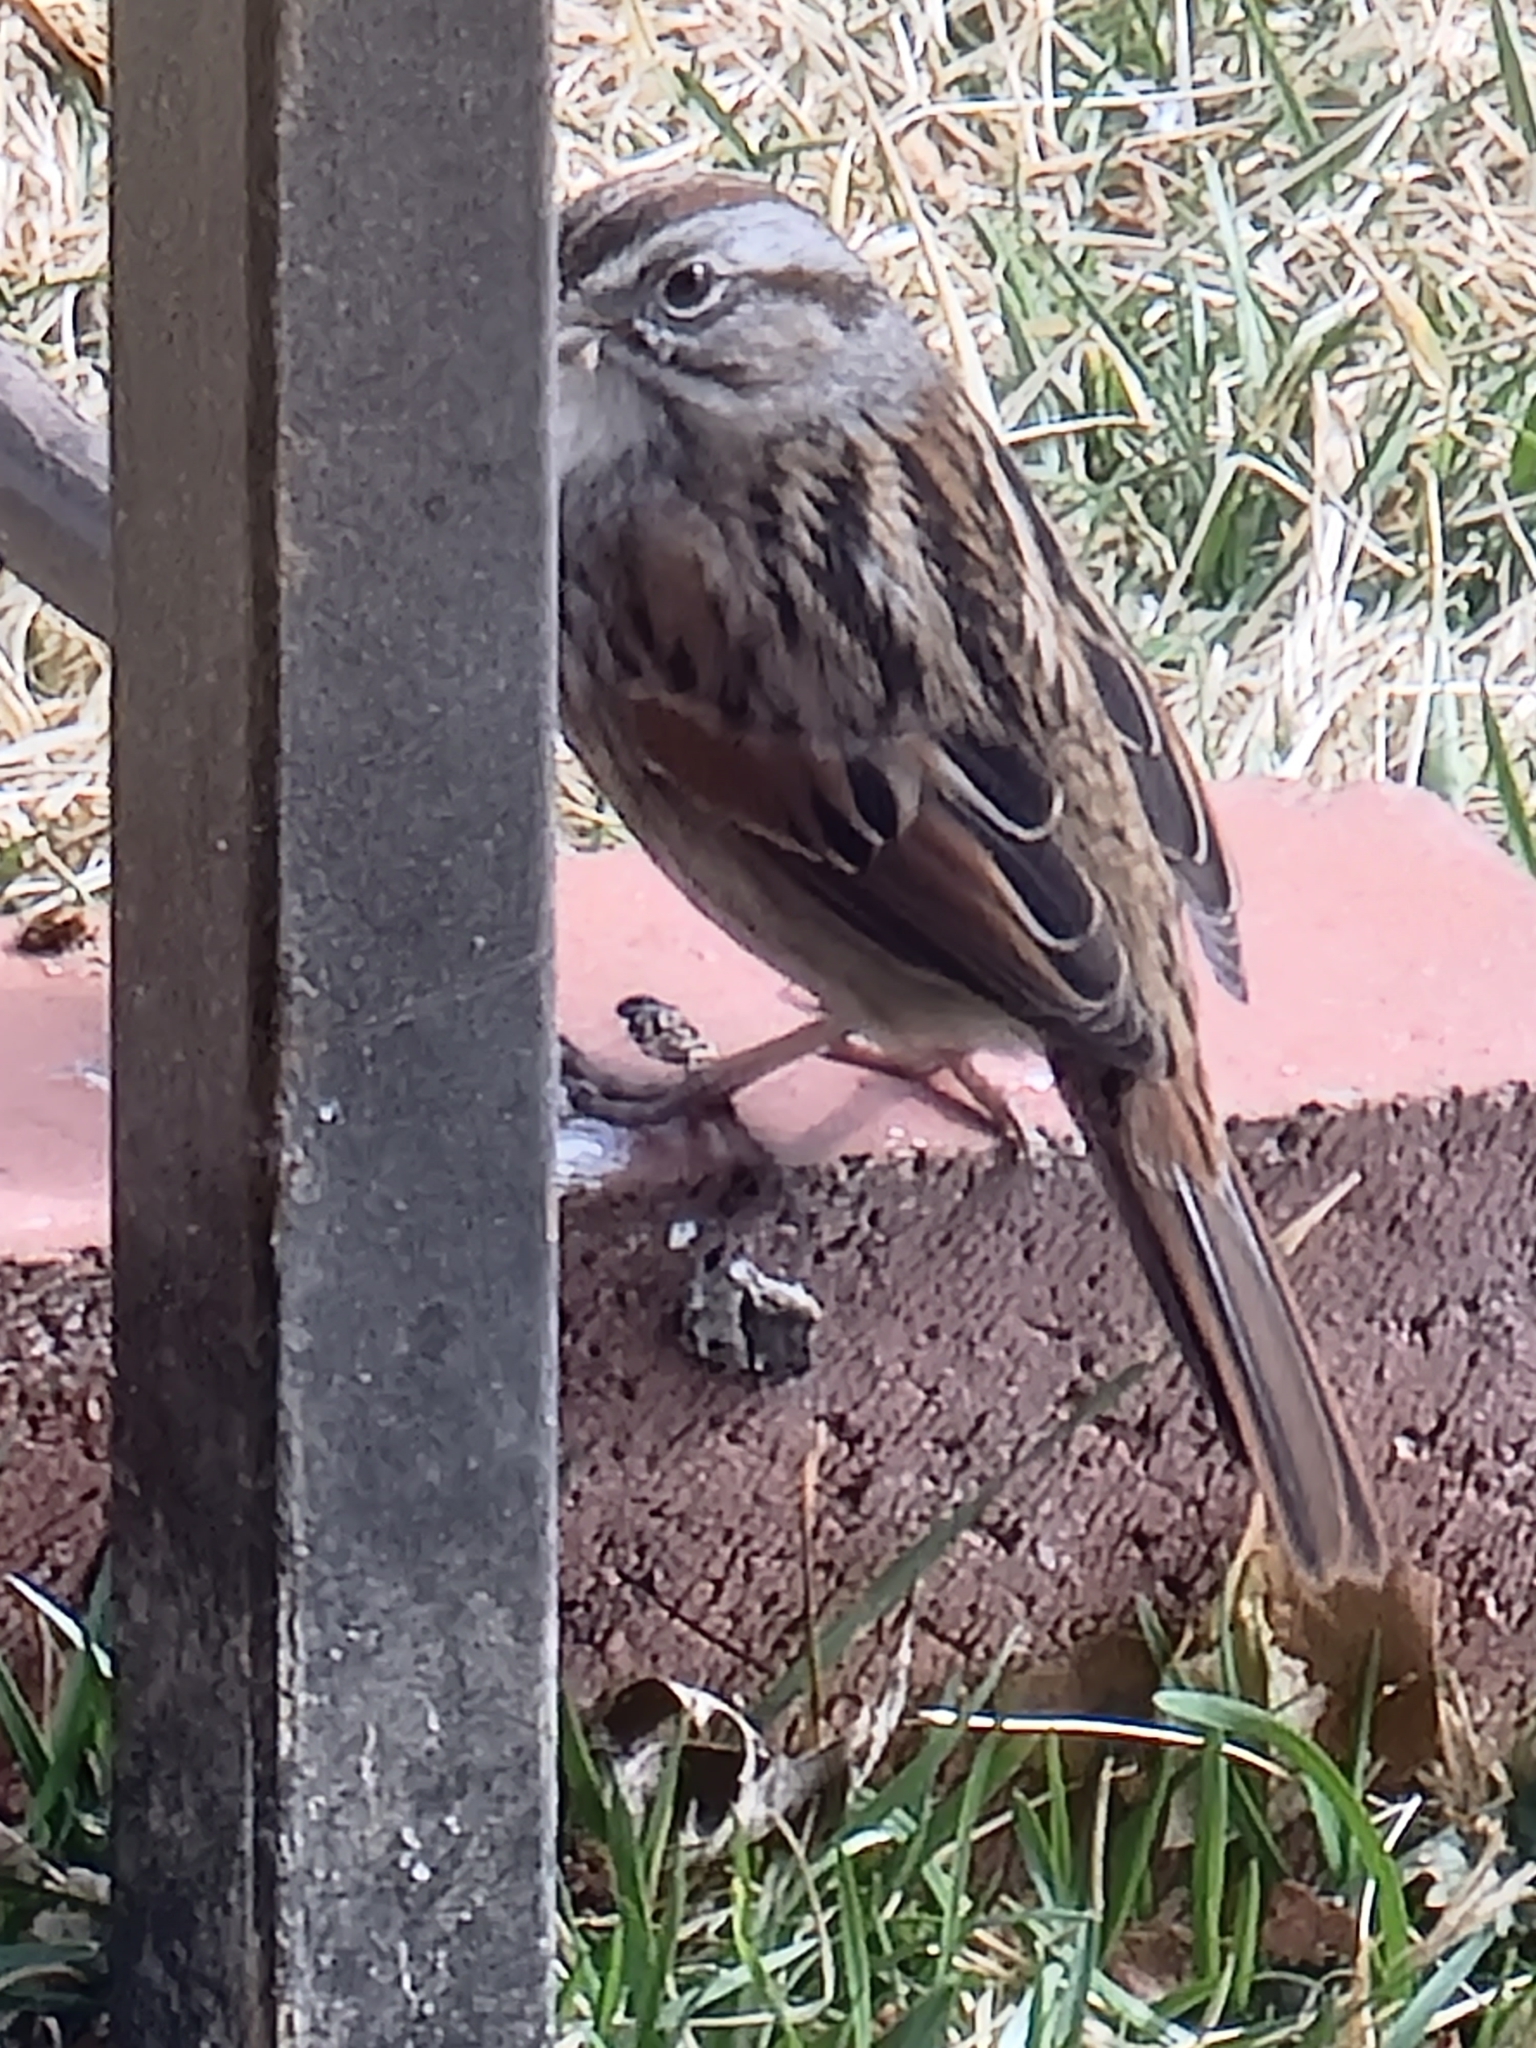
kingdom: Animalia
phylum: Chordata
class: Aves
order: Passeriformes
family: Passerellidae
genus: Melospiza
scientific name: Melospiza georgiana
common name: Swamp sparrow
